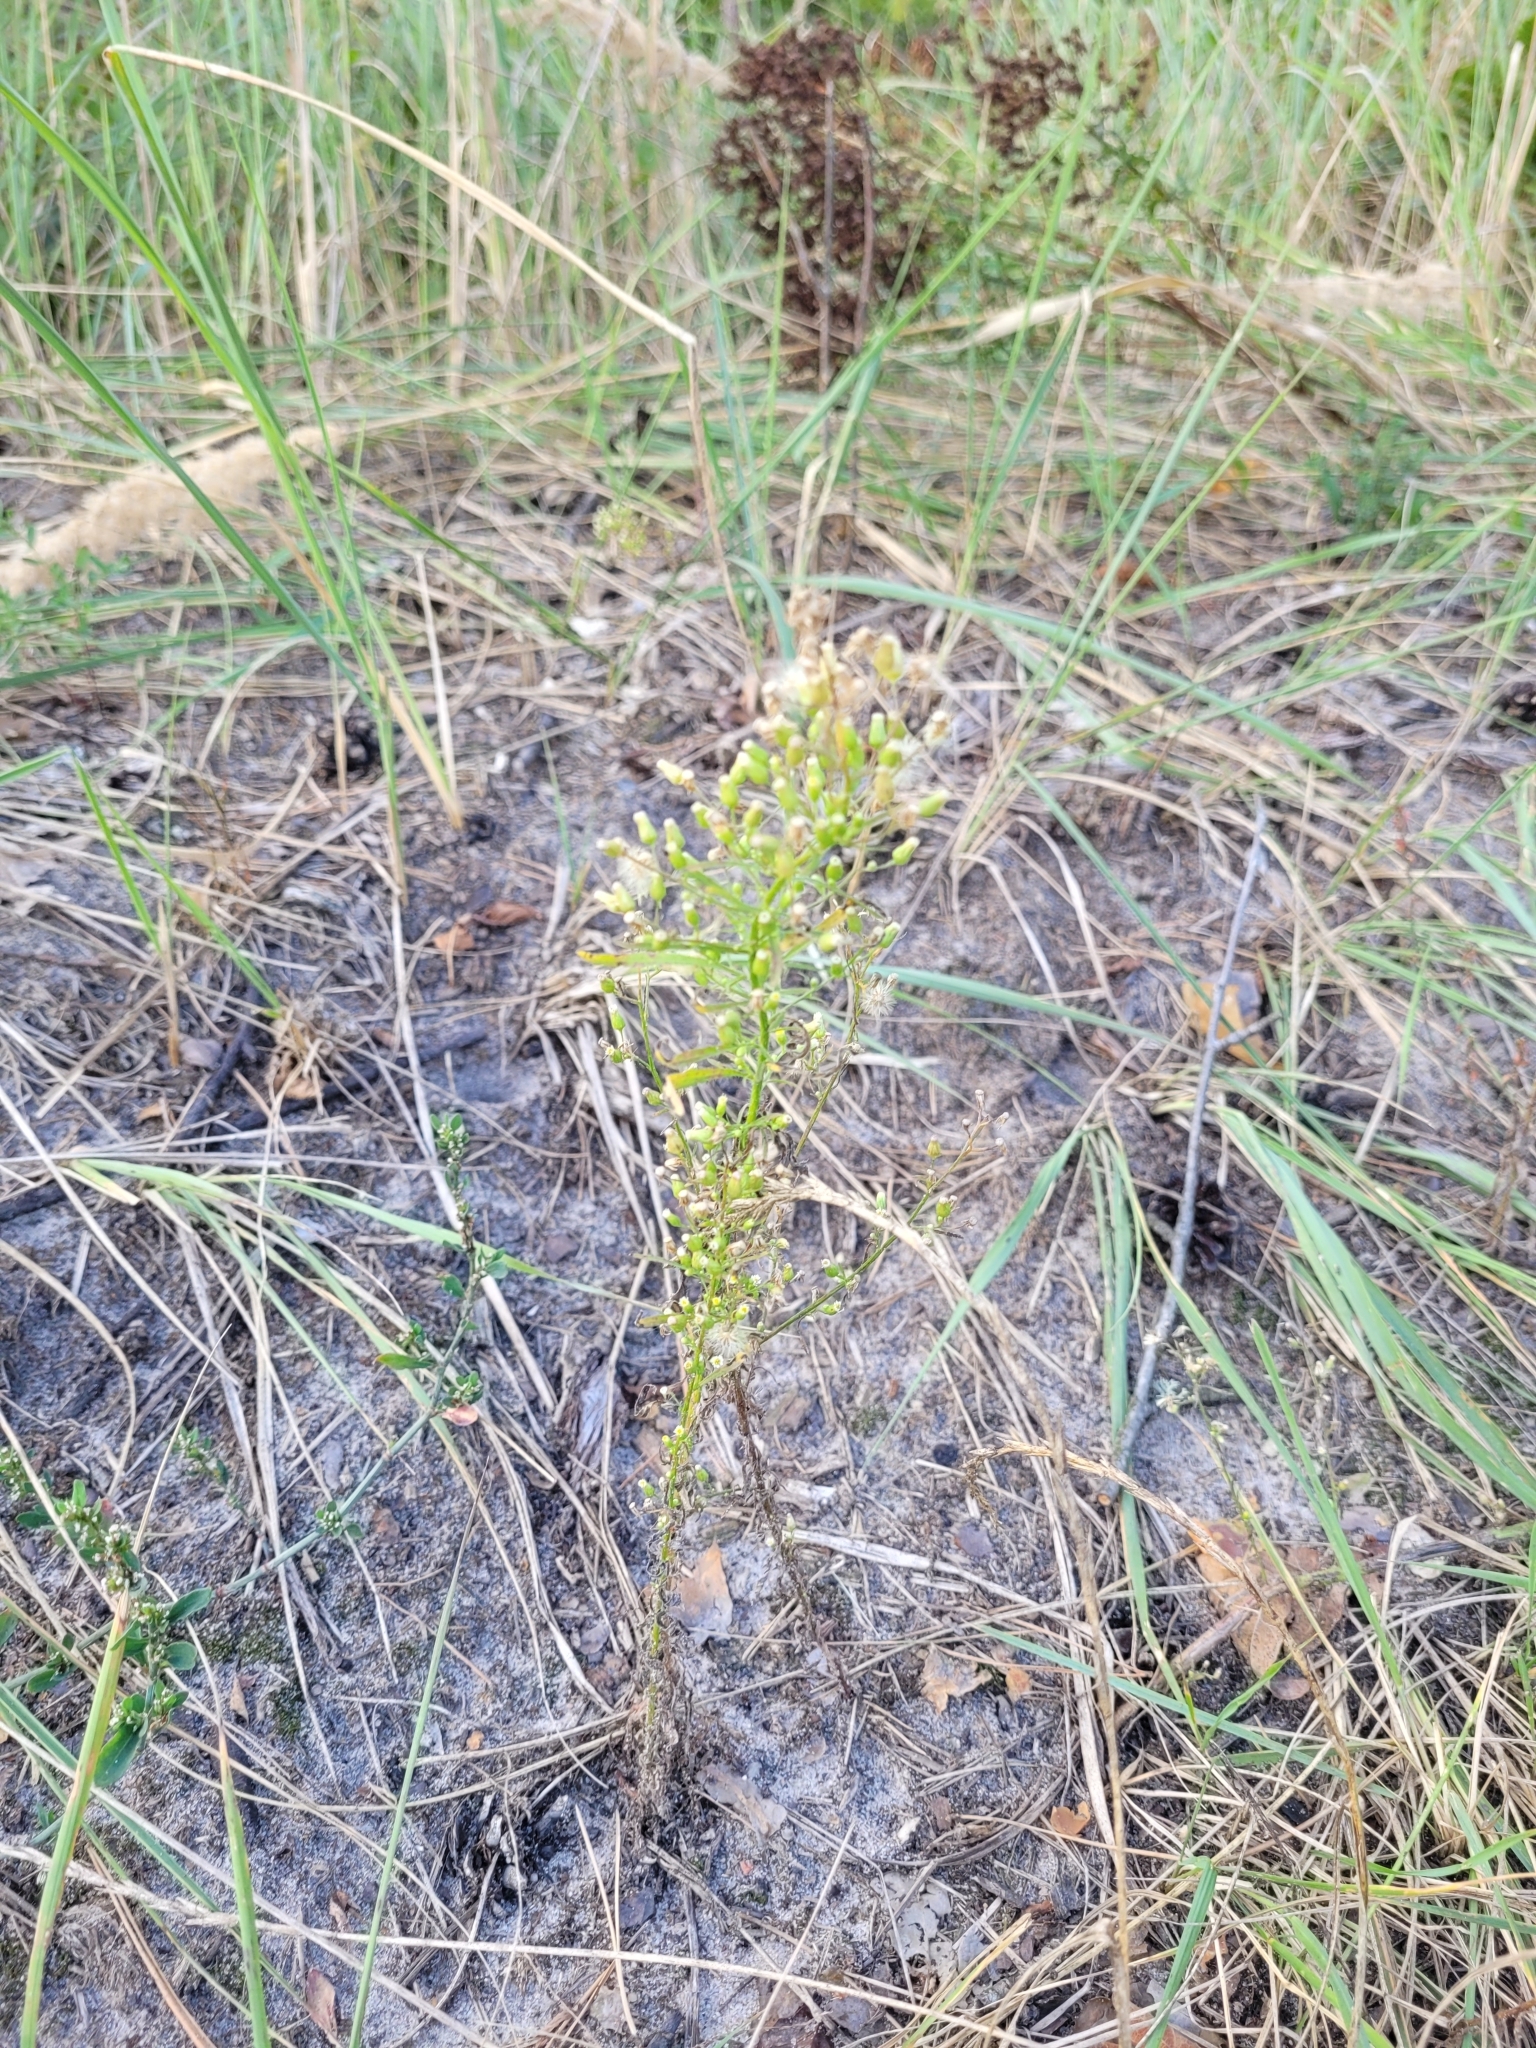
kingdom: Plantae
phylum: Tracheophyta
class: Magnoliopsida
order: Asterales
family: Asteraceae
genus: Erigeron
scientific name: Erigeron canadensis
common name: Canadian fleabane
